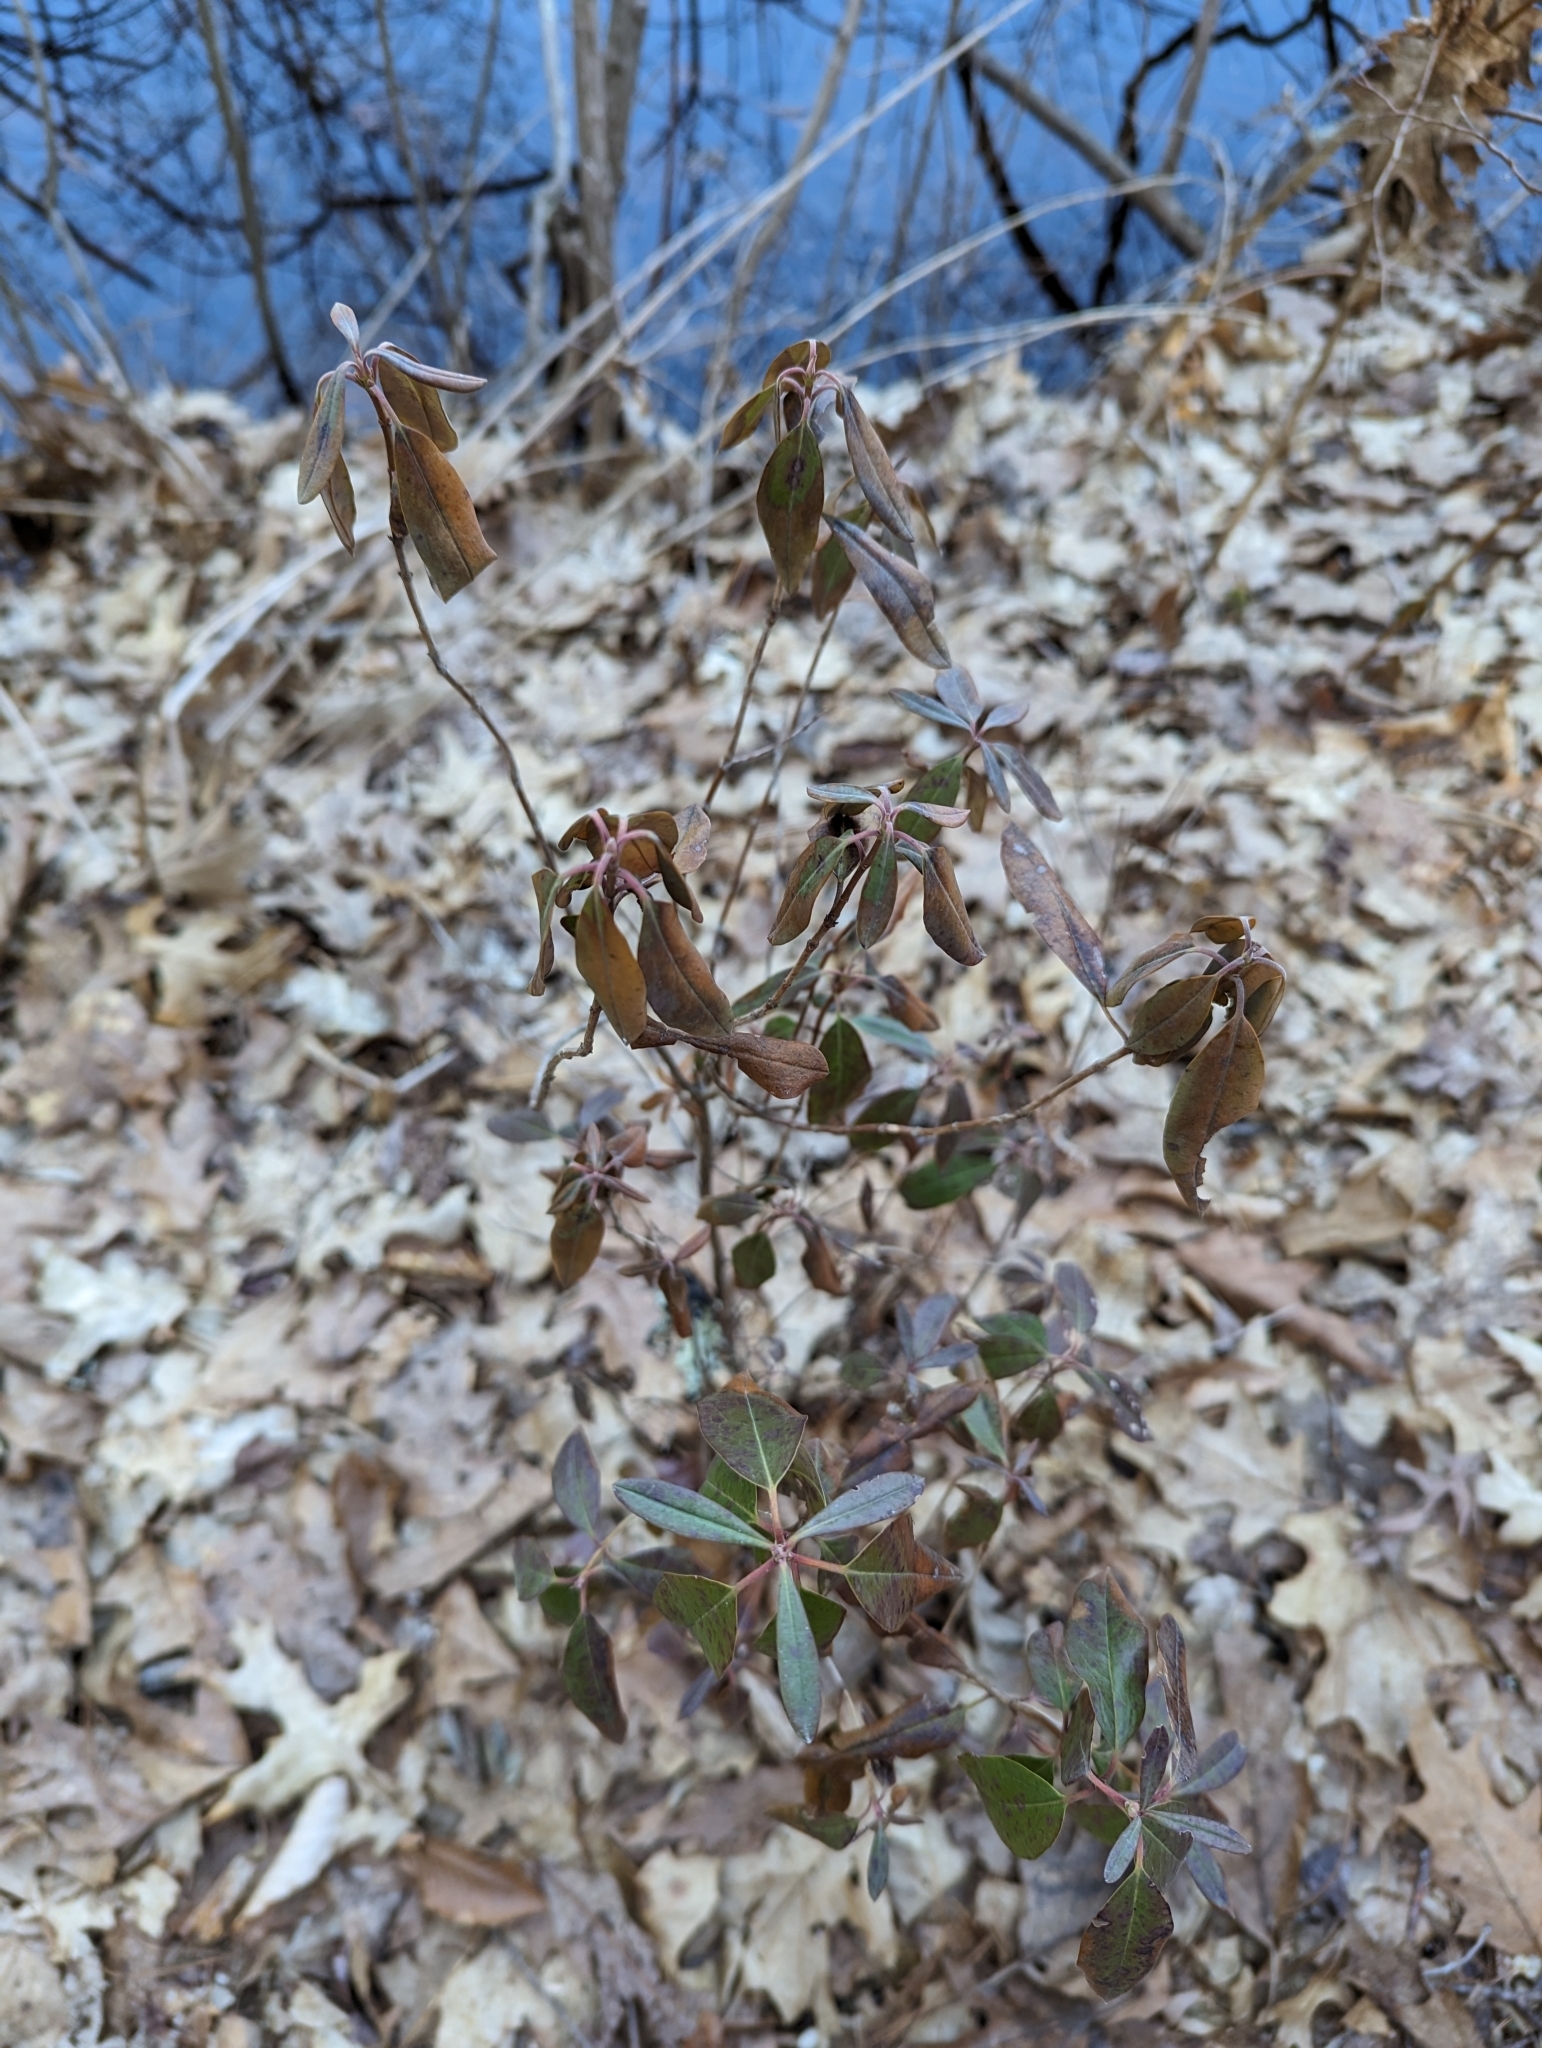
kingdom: Plantae
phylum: Tracheophyta
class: Magnoliopsida
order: Ericales
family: Ericaceae
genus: Kalmia
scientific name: Kalmia angustifolia
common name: Sheep-laurel
